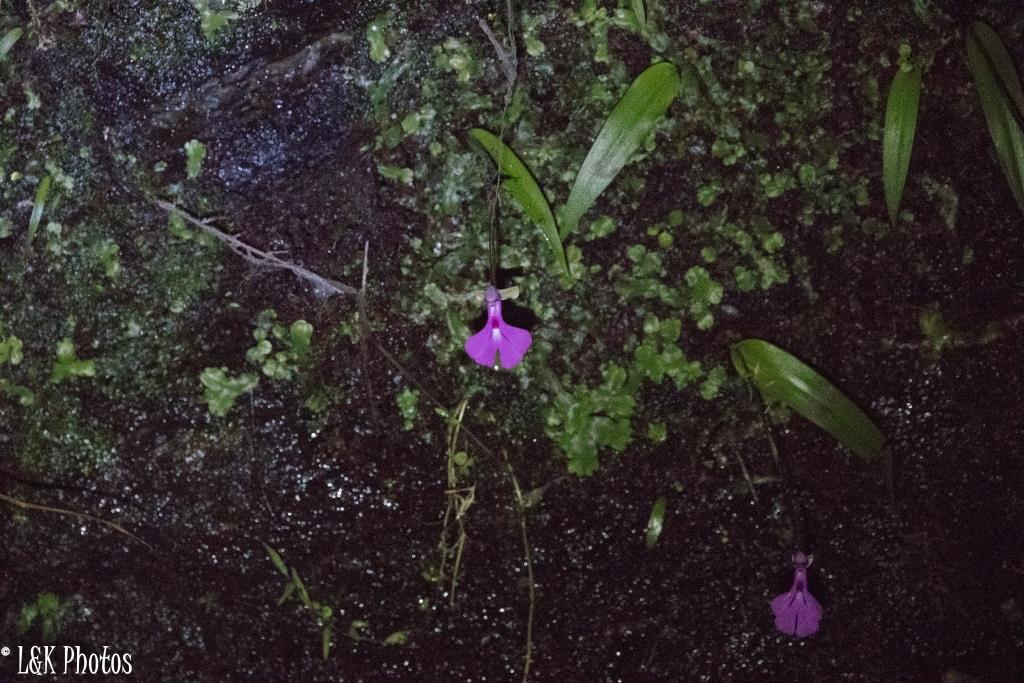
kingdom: Plantae
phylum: Tracheophyta
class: Liliopsida
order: Asparagales
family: Orchidaceae
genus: Cynorkis
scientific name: Cynorkis lowiana
